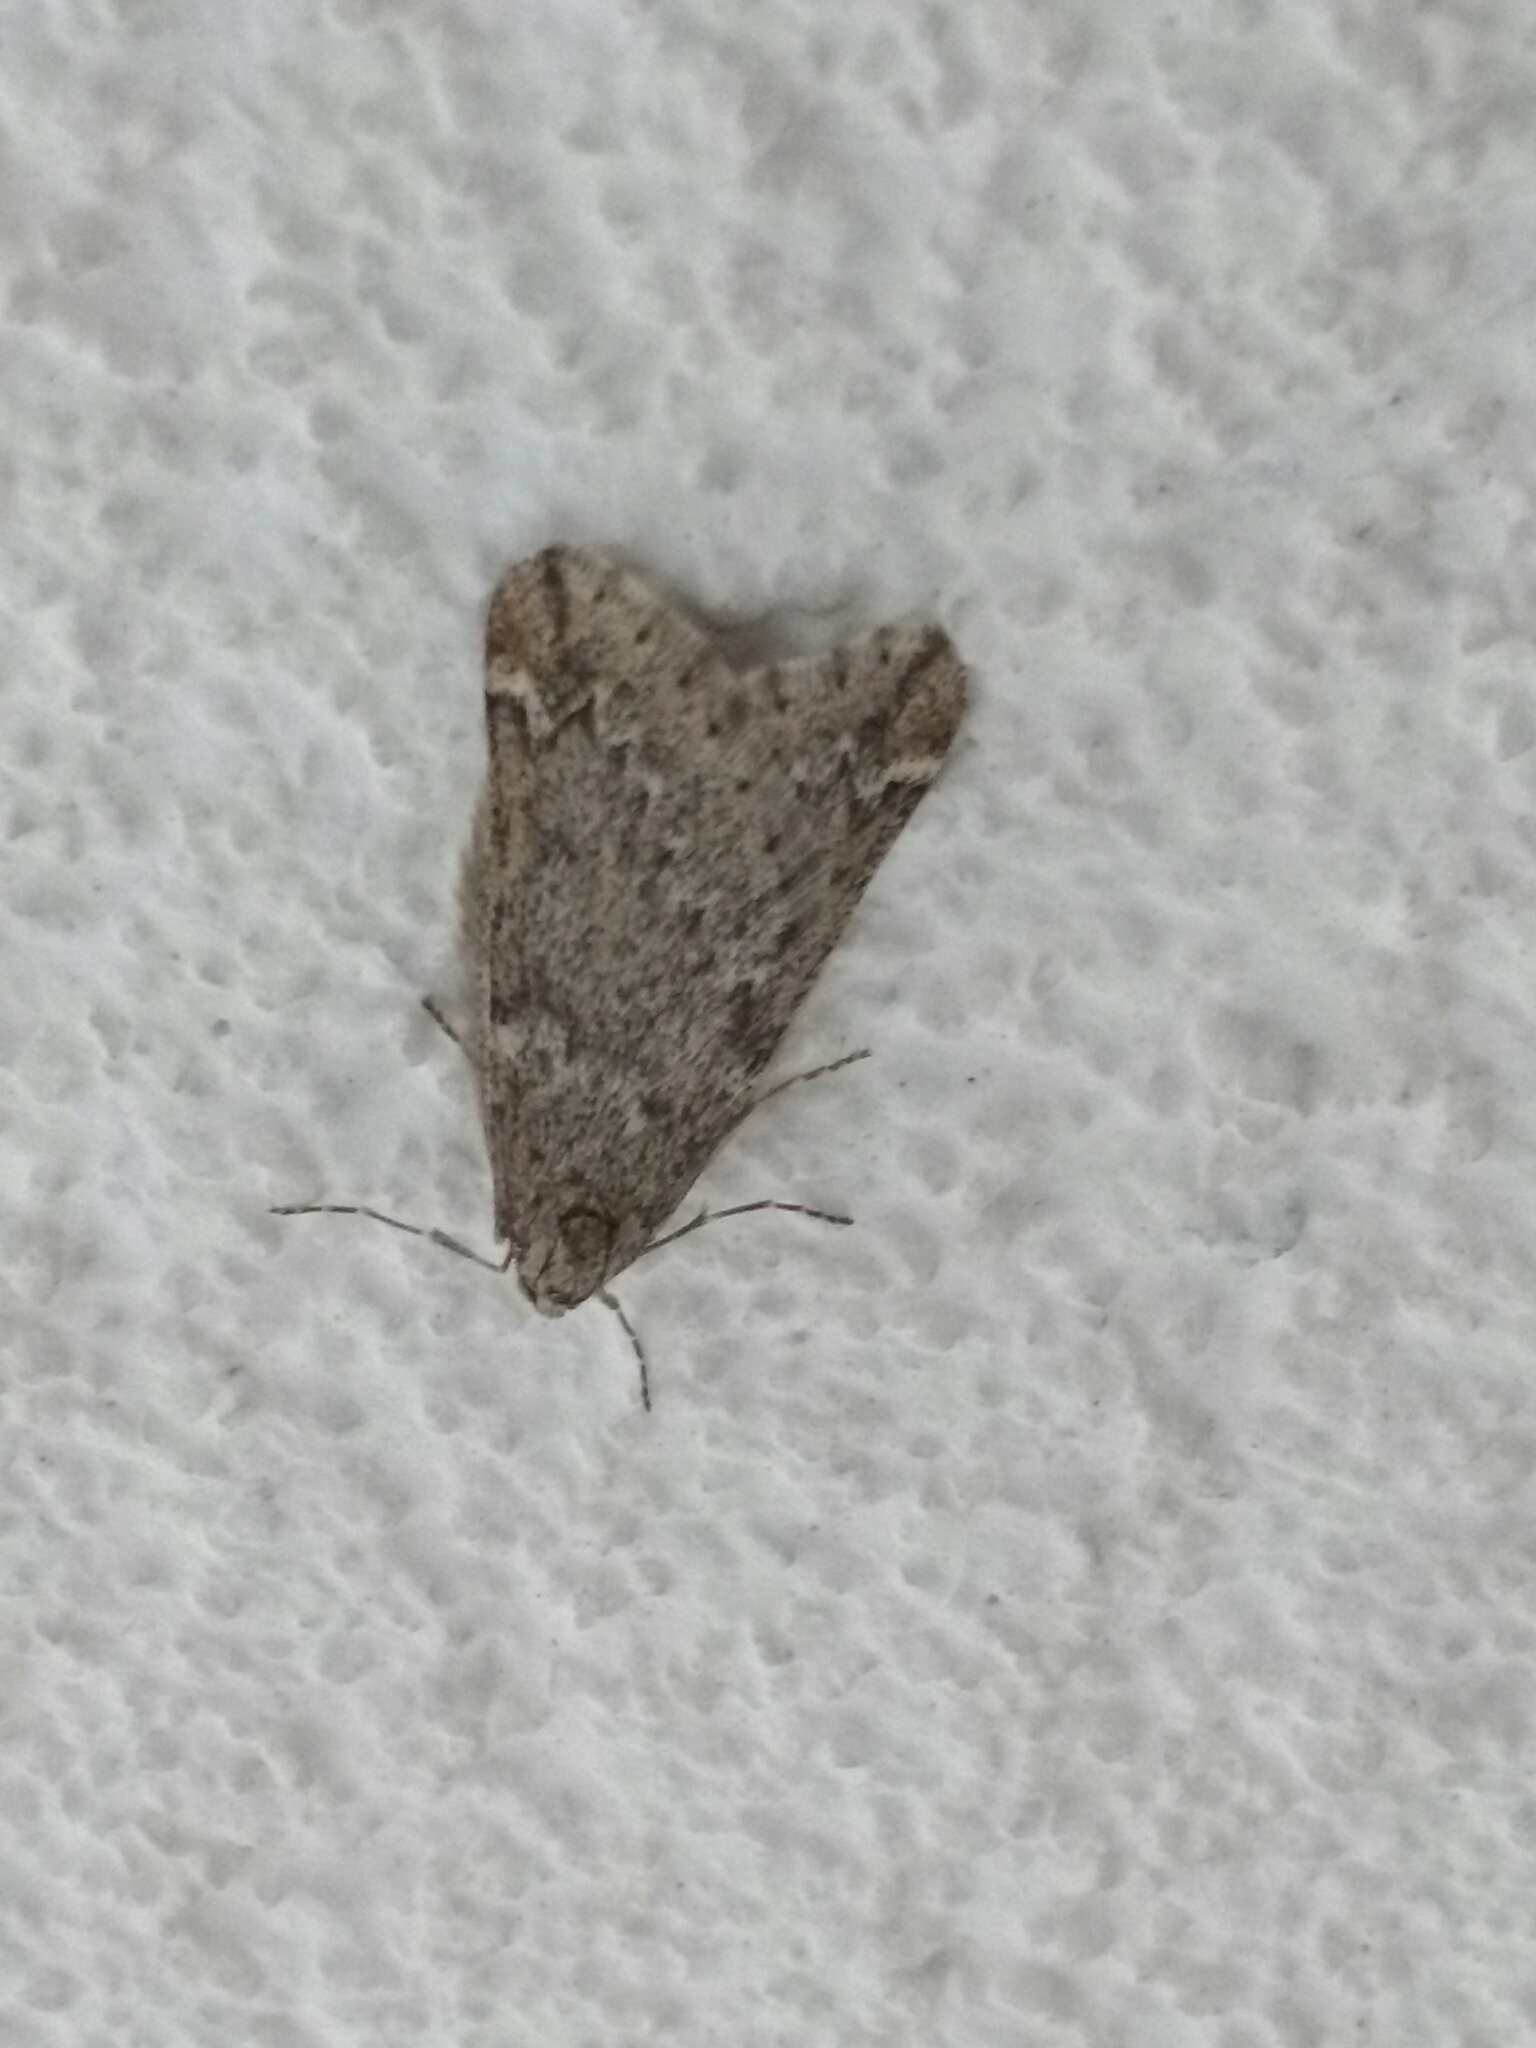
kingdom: Animalia
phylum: Arthropoda
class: Insecta
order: Lepidoptera
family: Geometridae
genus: Alsophila
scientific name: Alsophila aescularia
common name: March moth
